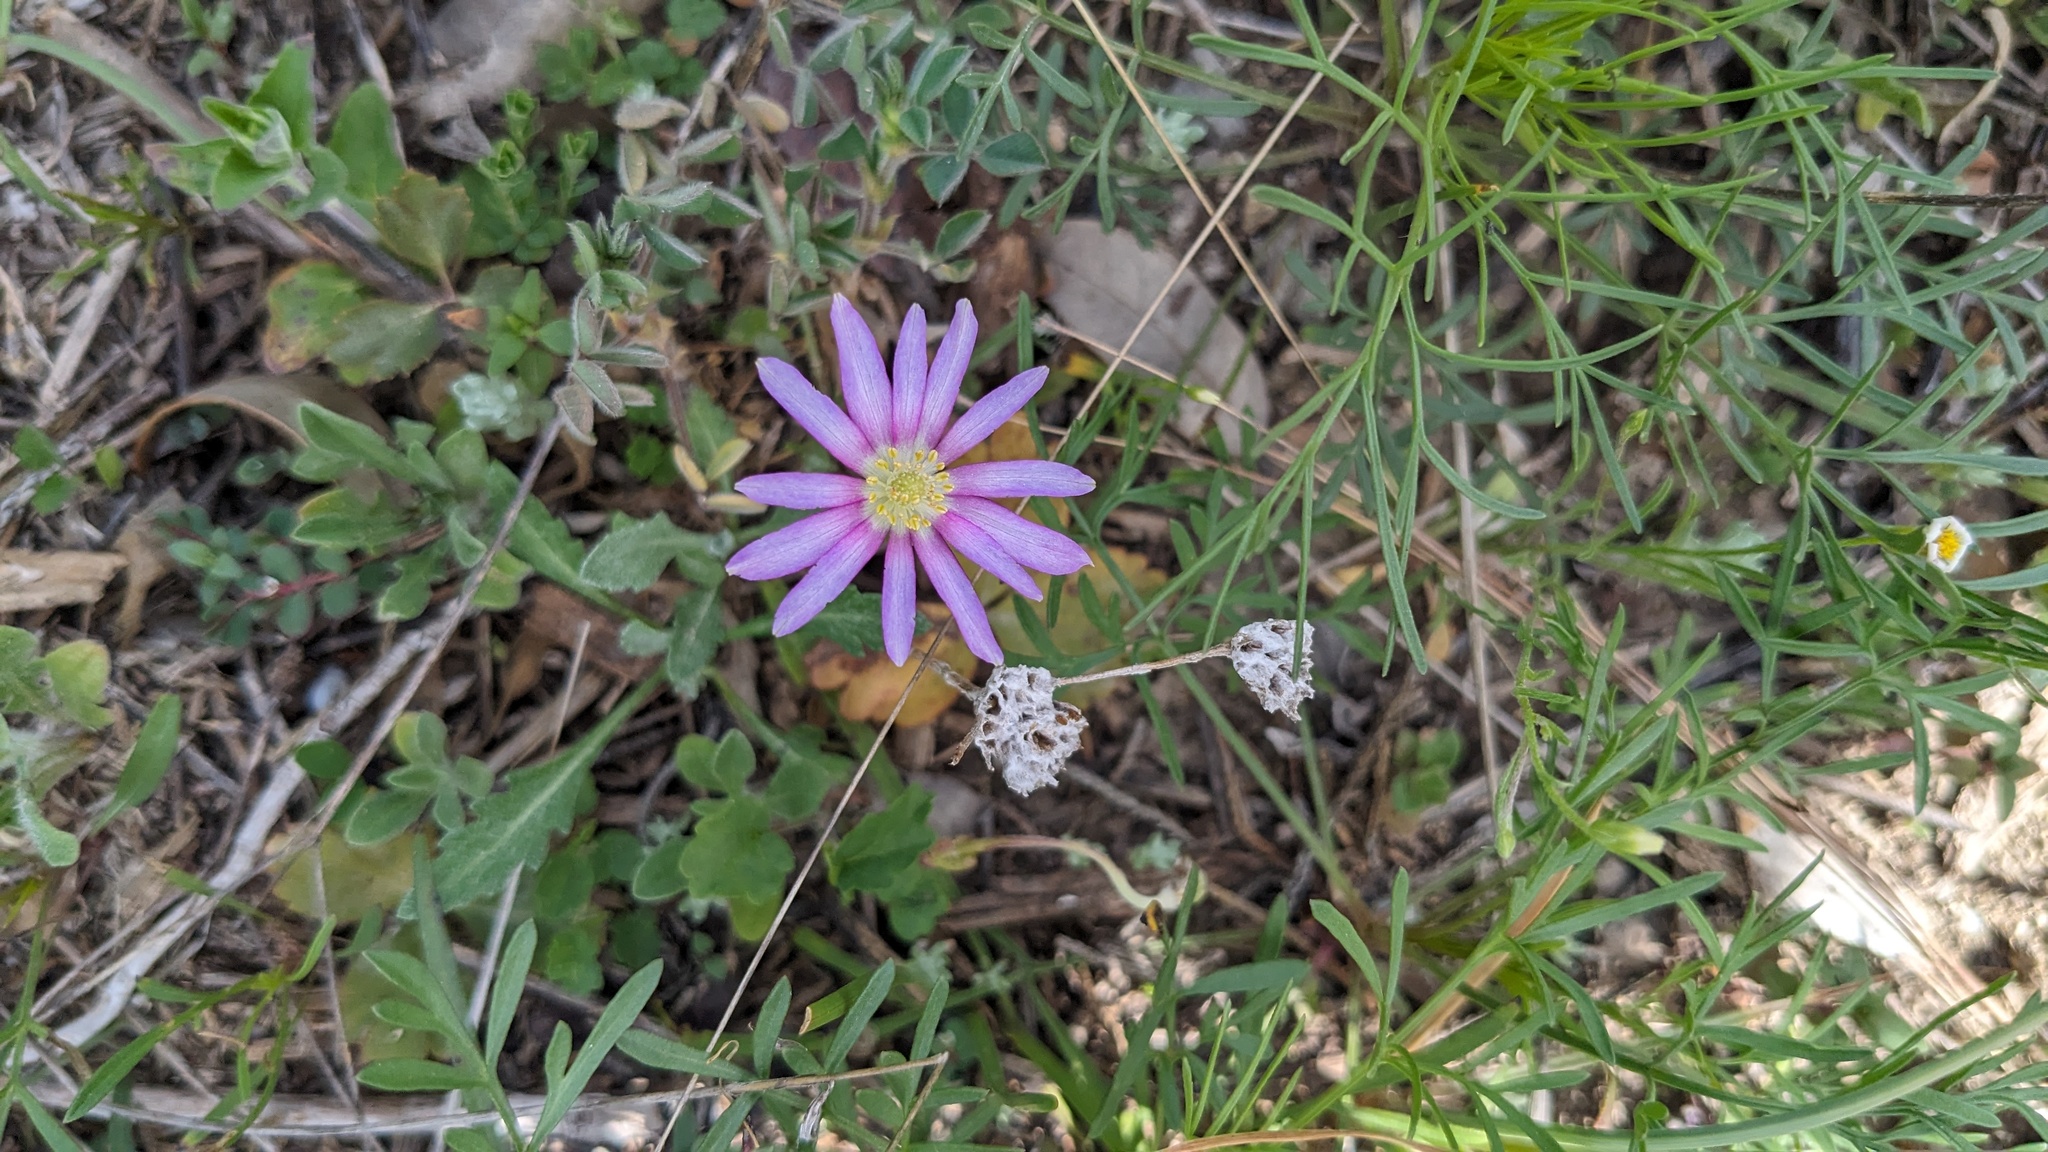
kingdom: Plantae
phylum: Tracheophyta
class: Magnoliopsida
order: Ranunculales
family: Ranunculaceae
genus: Anemone
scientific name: Anemone berlandieri
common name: Ten-petal anemone
